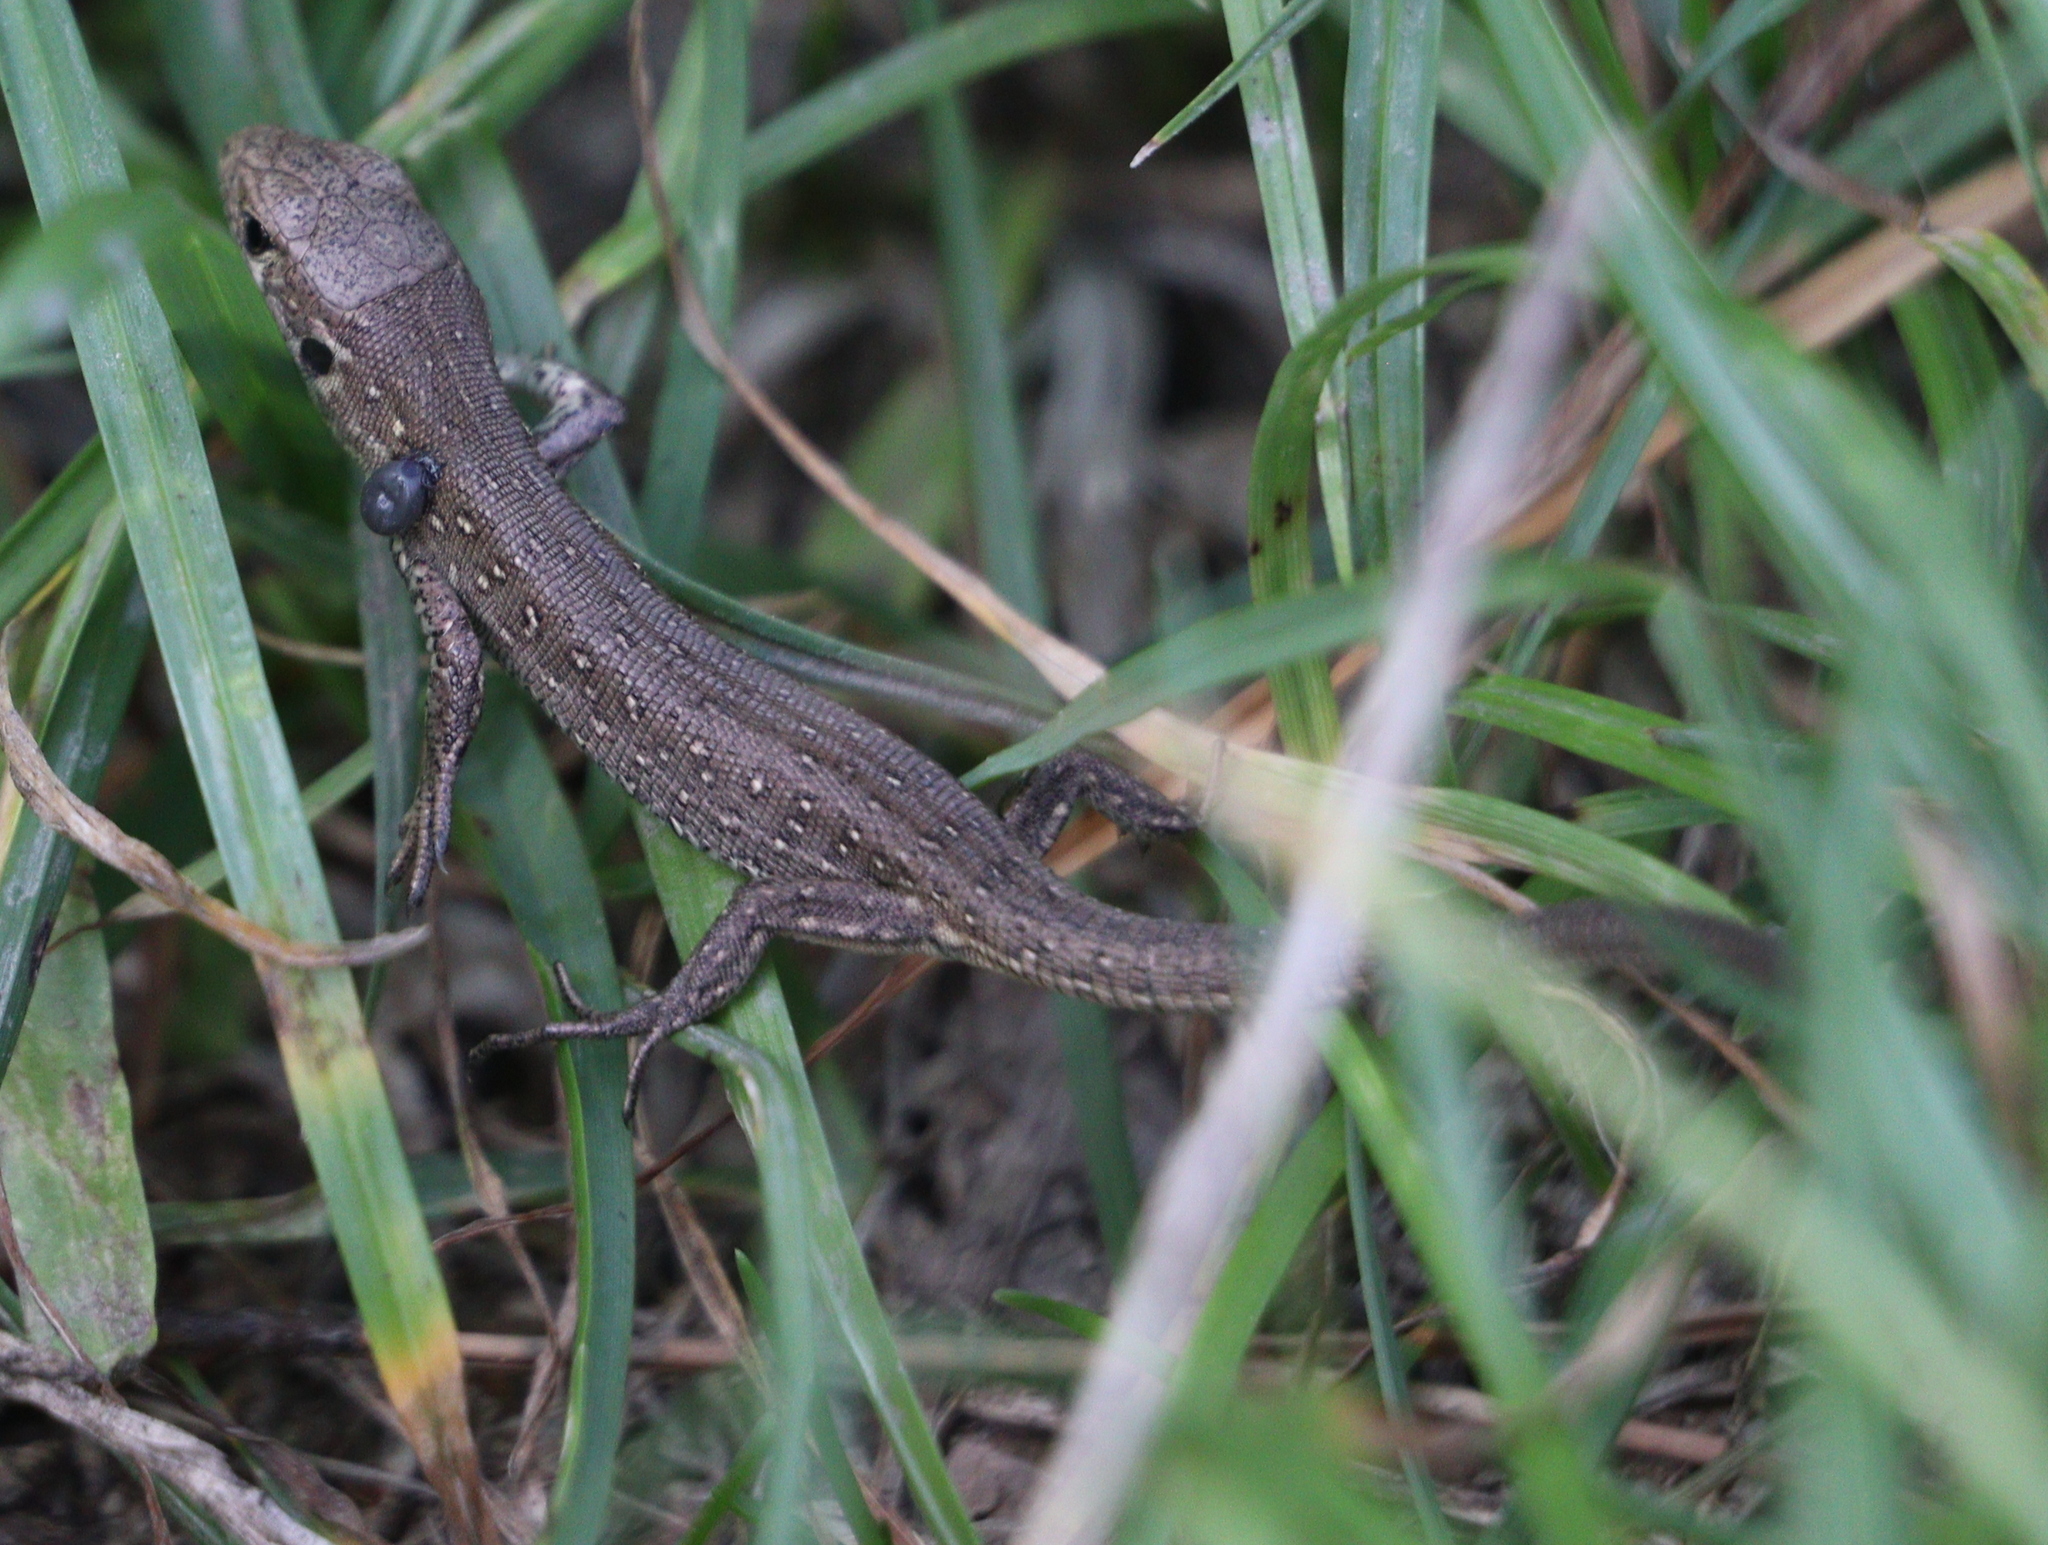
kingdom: Animalia
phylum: Chordata
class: Squamata
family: Lacertidae
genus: Lacerta
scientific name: Lacerta agilis
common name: Sand lizard
